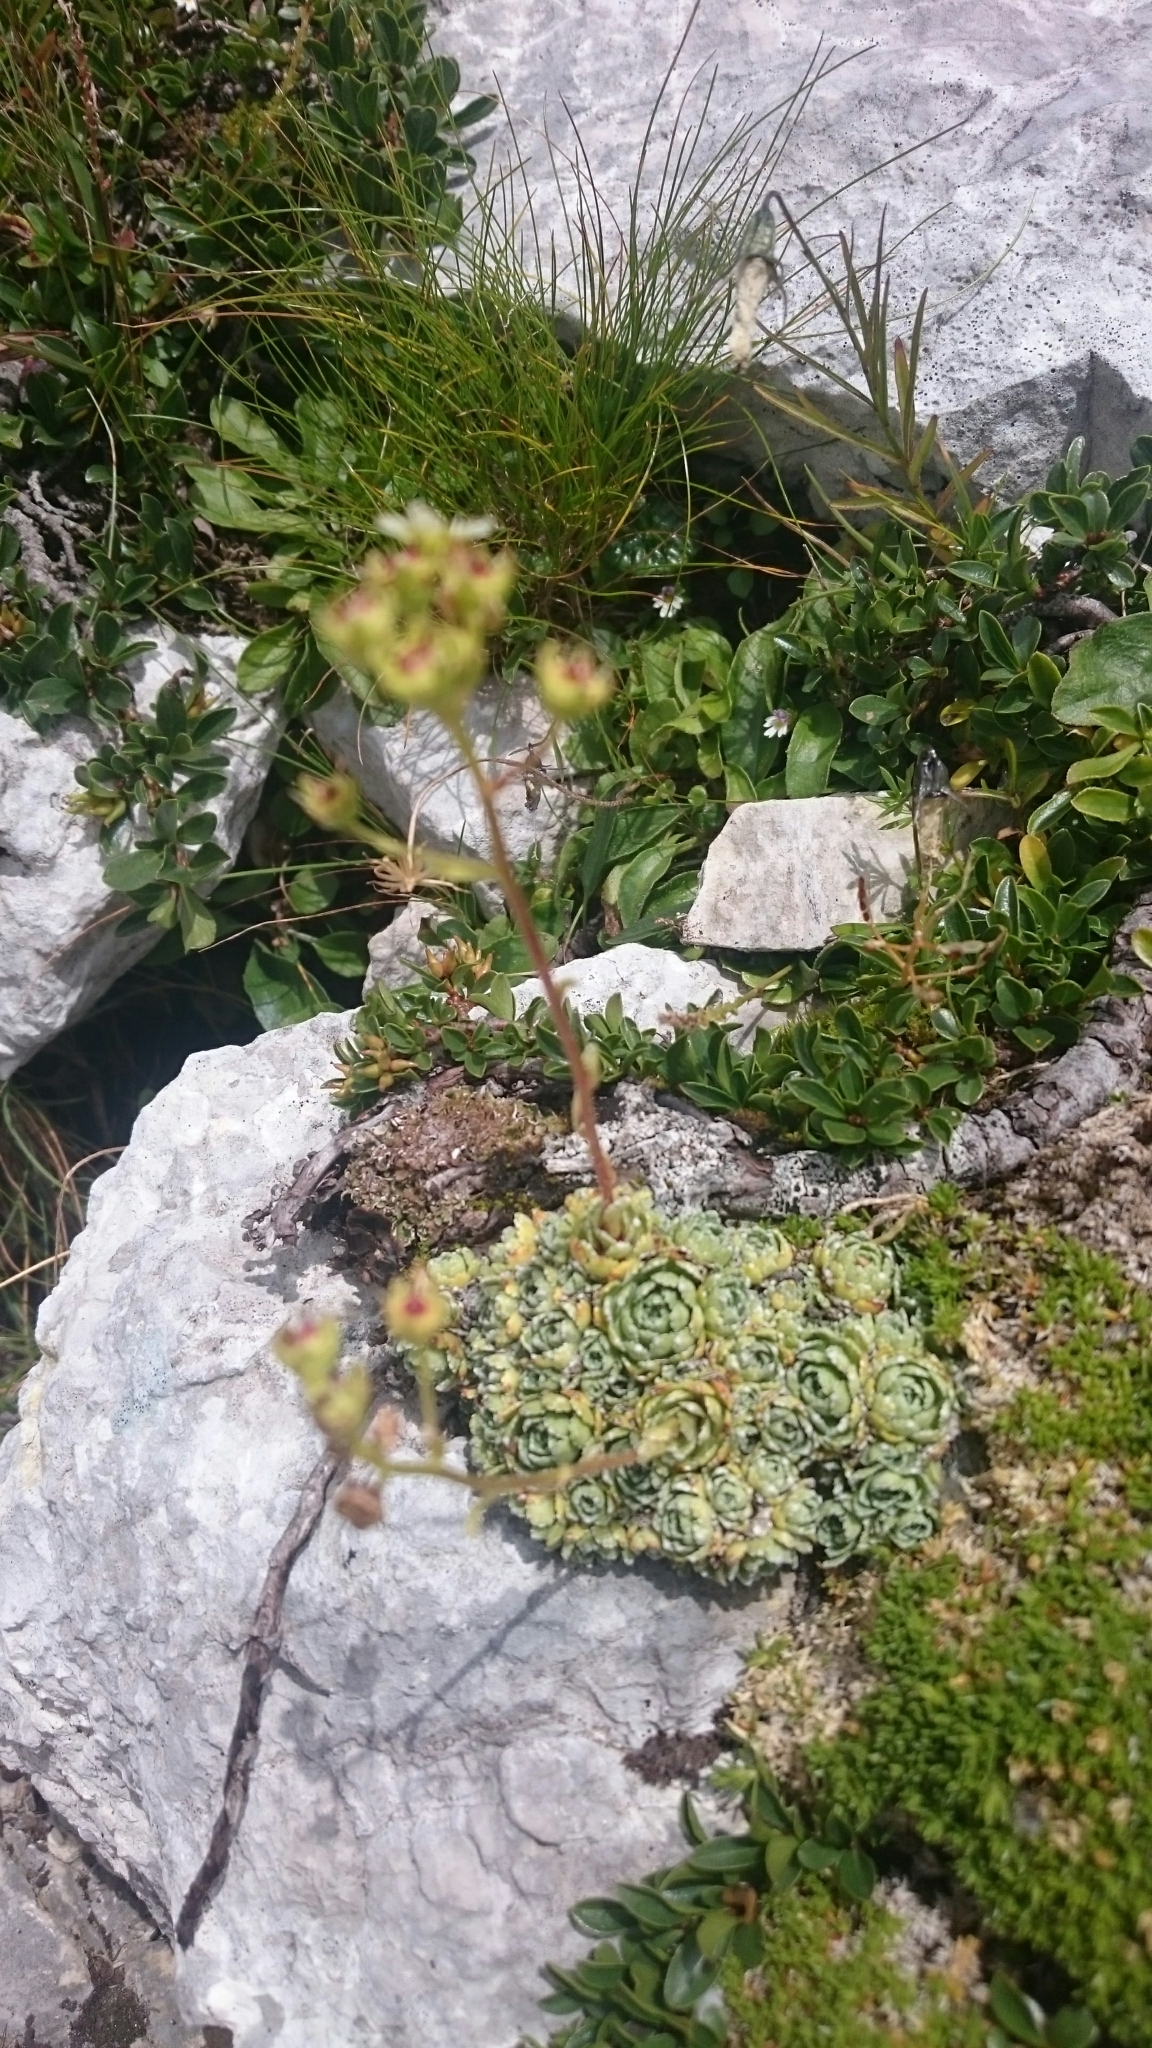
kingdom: Plantae
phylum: Tracheophyta
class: Magnoliopsida
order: Saxifragales
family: Saxifragaceae
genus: Saxifraga
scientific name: Saxifraga paniculata
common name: Livelong saxifrage
